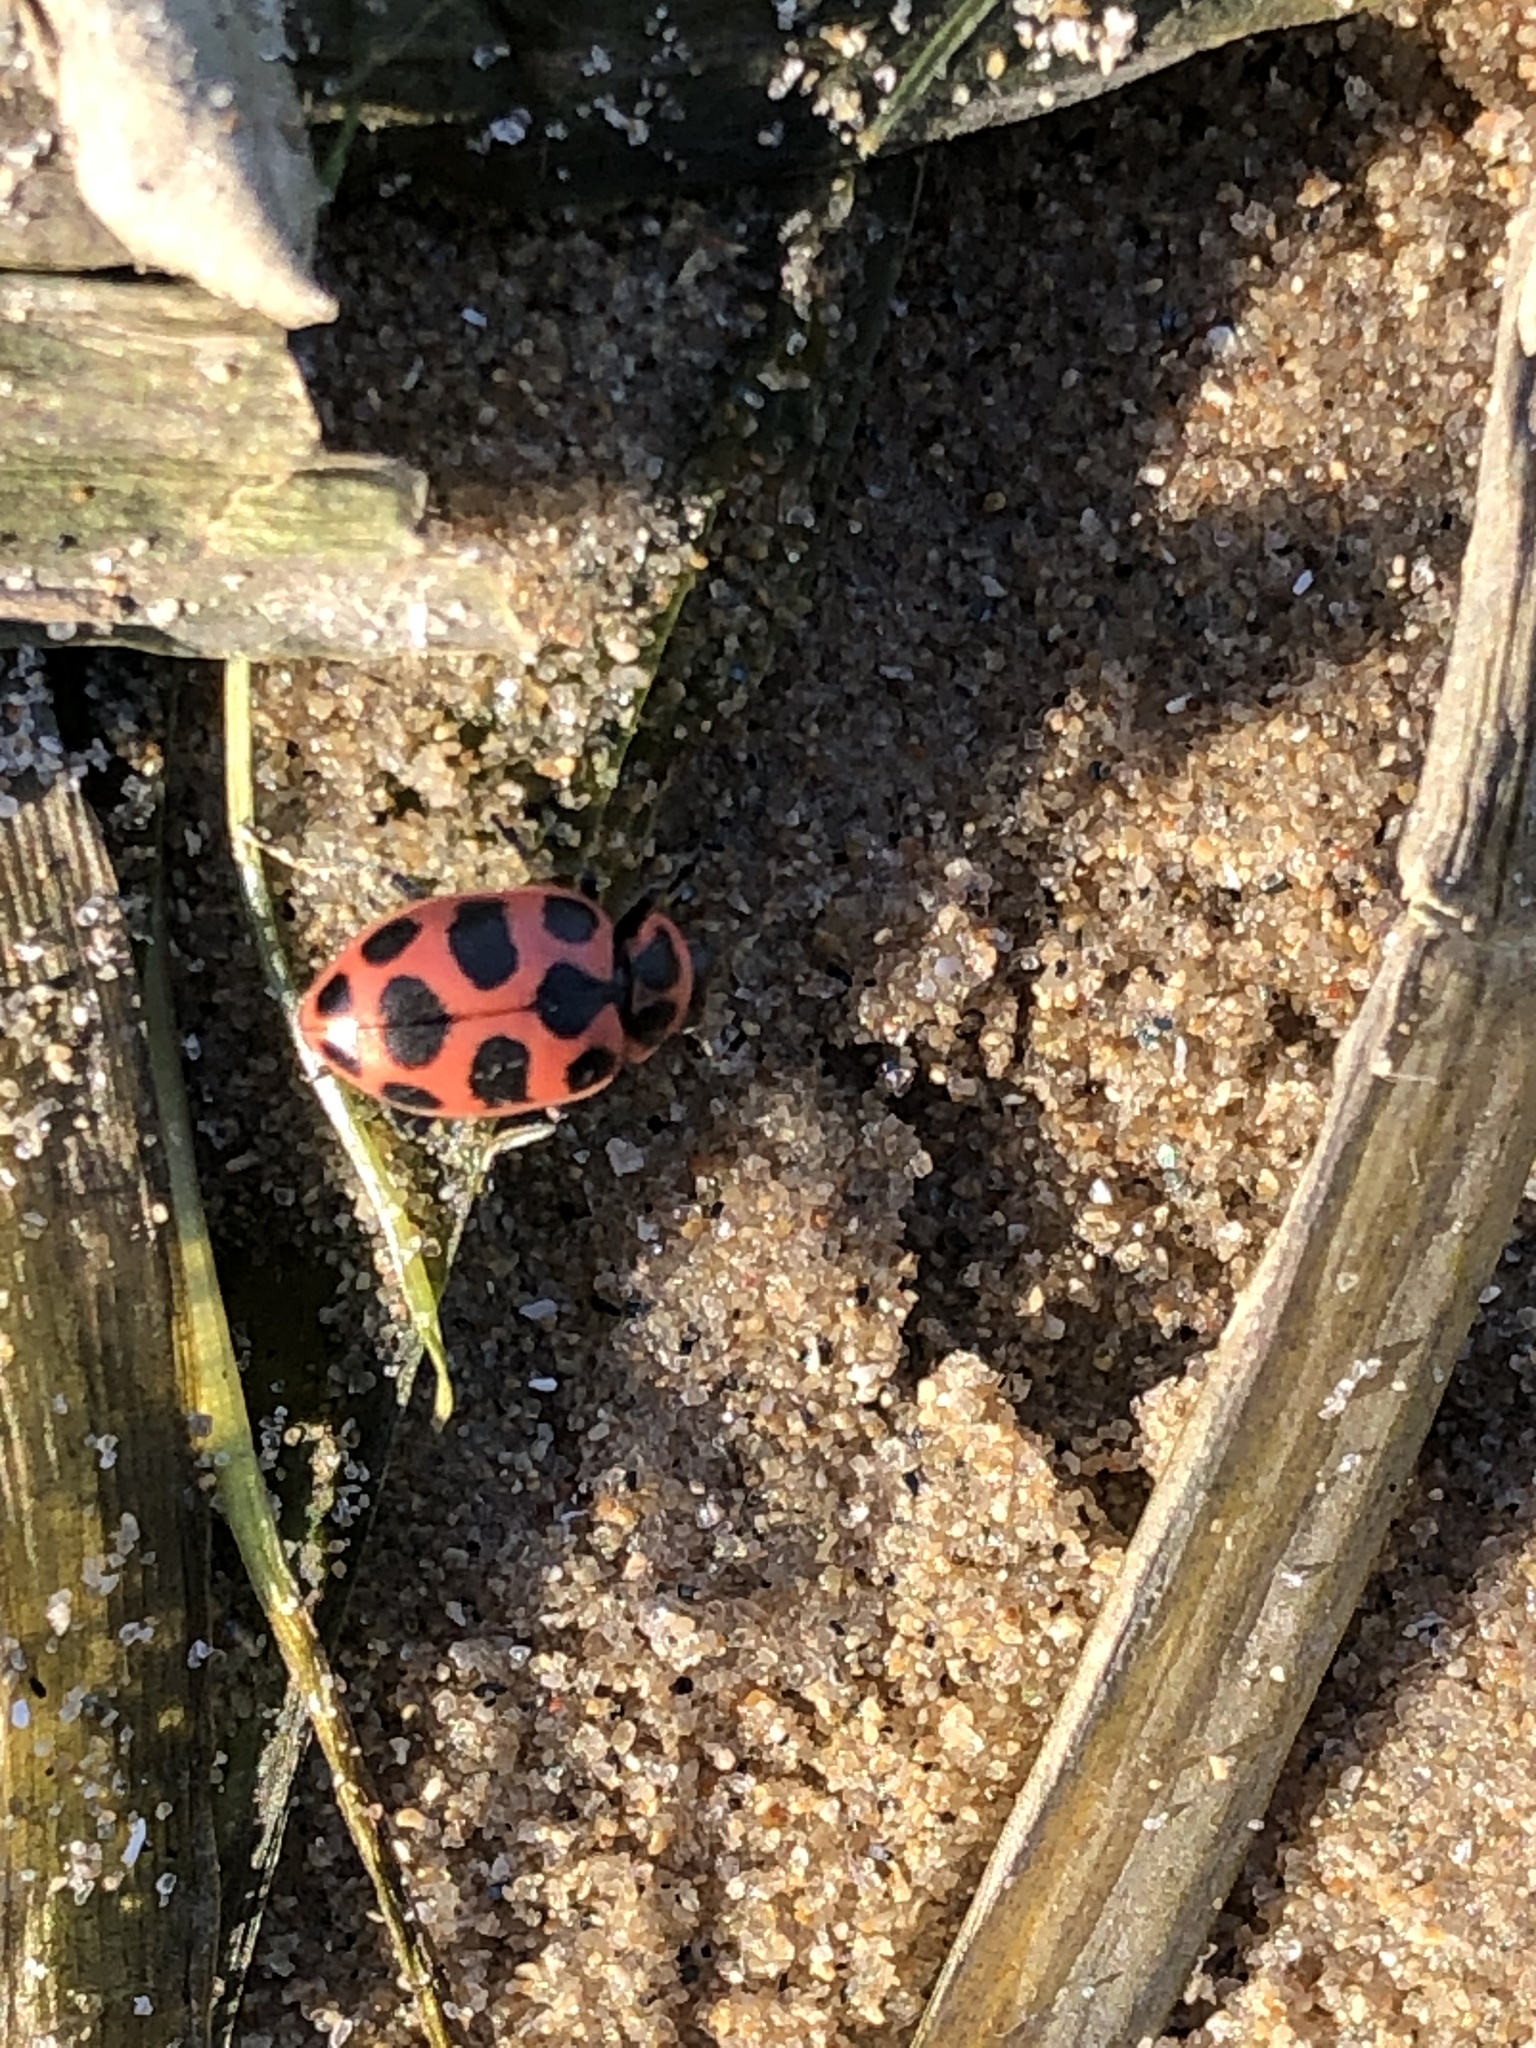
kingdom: Animalia
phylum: Arthropoda
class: Insecta
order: Coleoptera
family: Coccinellidae
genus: Coleomegilla
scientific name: Coleomegilla maculata
